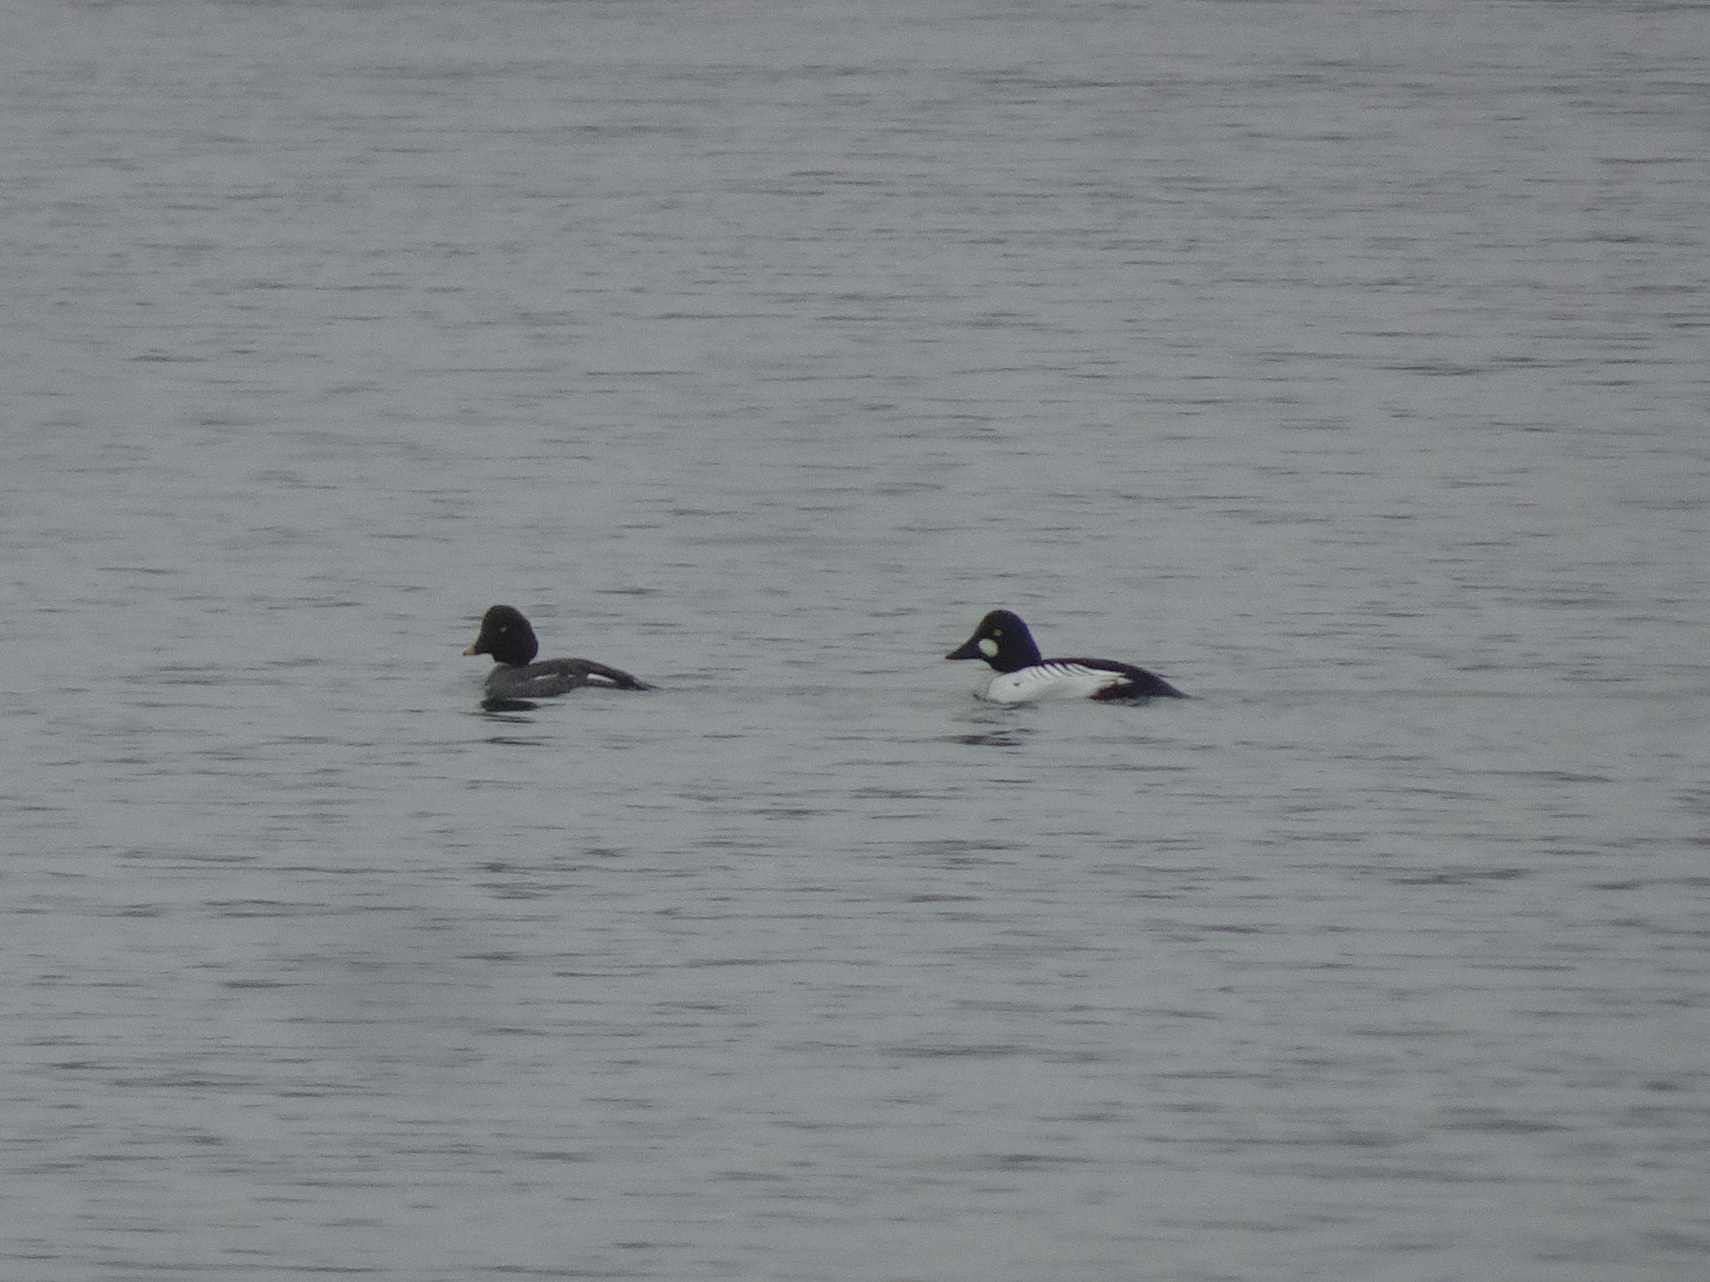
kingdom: Animalia
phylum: Chordata
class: Aves
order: Anseriformes
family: Anatidae
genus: Bucephala
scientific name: Bucephala clangula
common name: Common goldeneye
